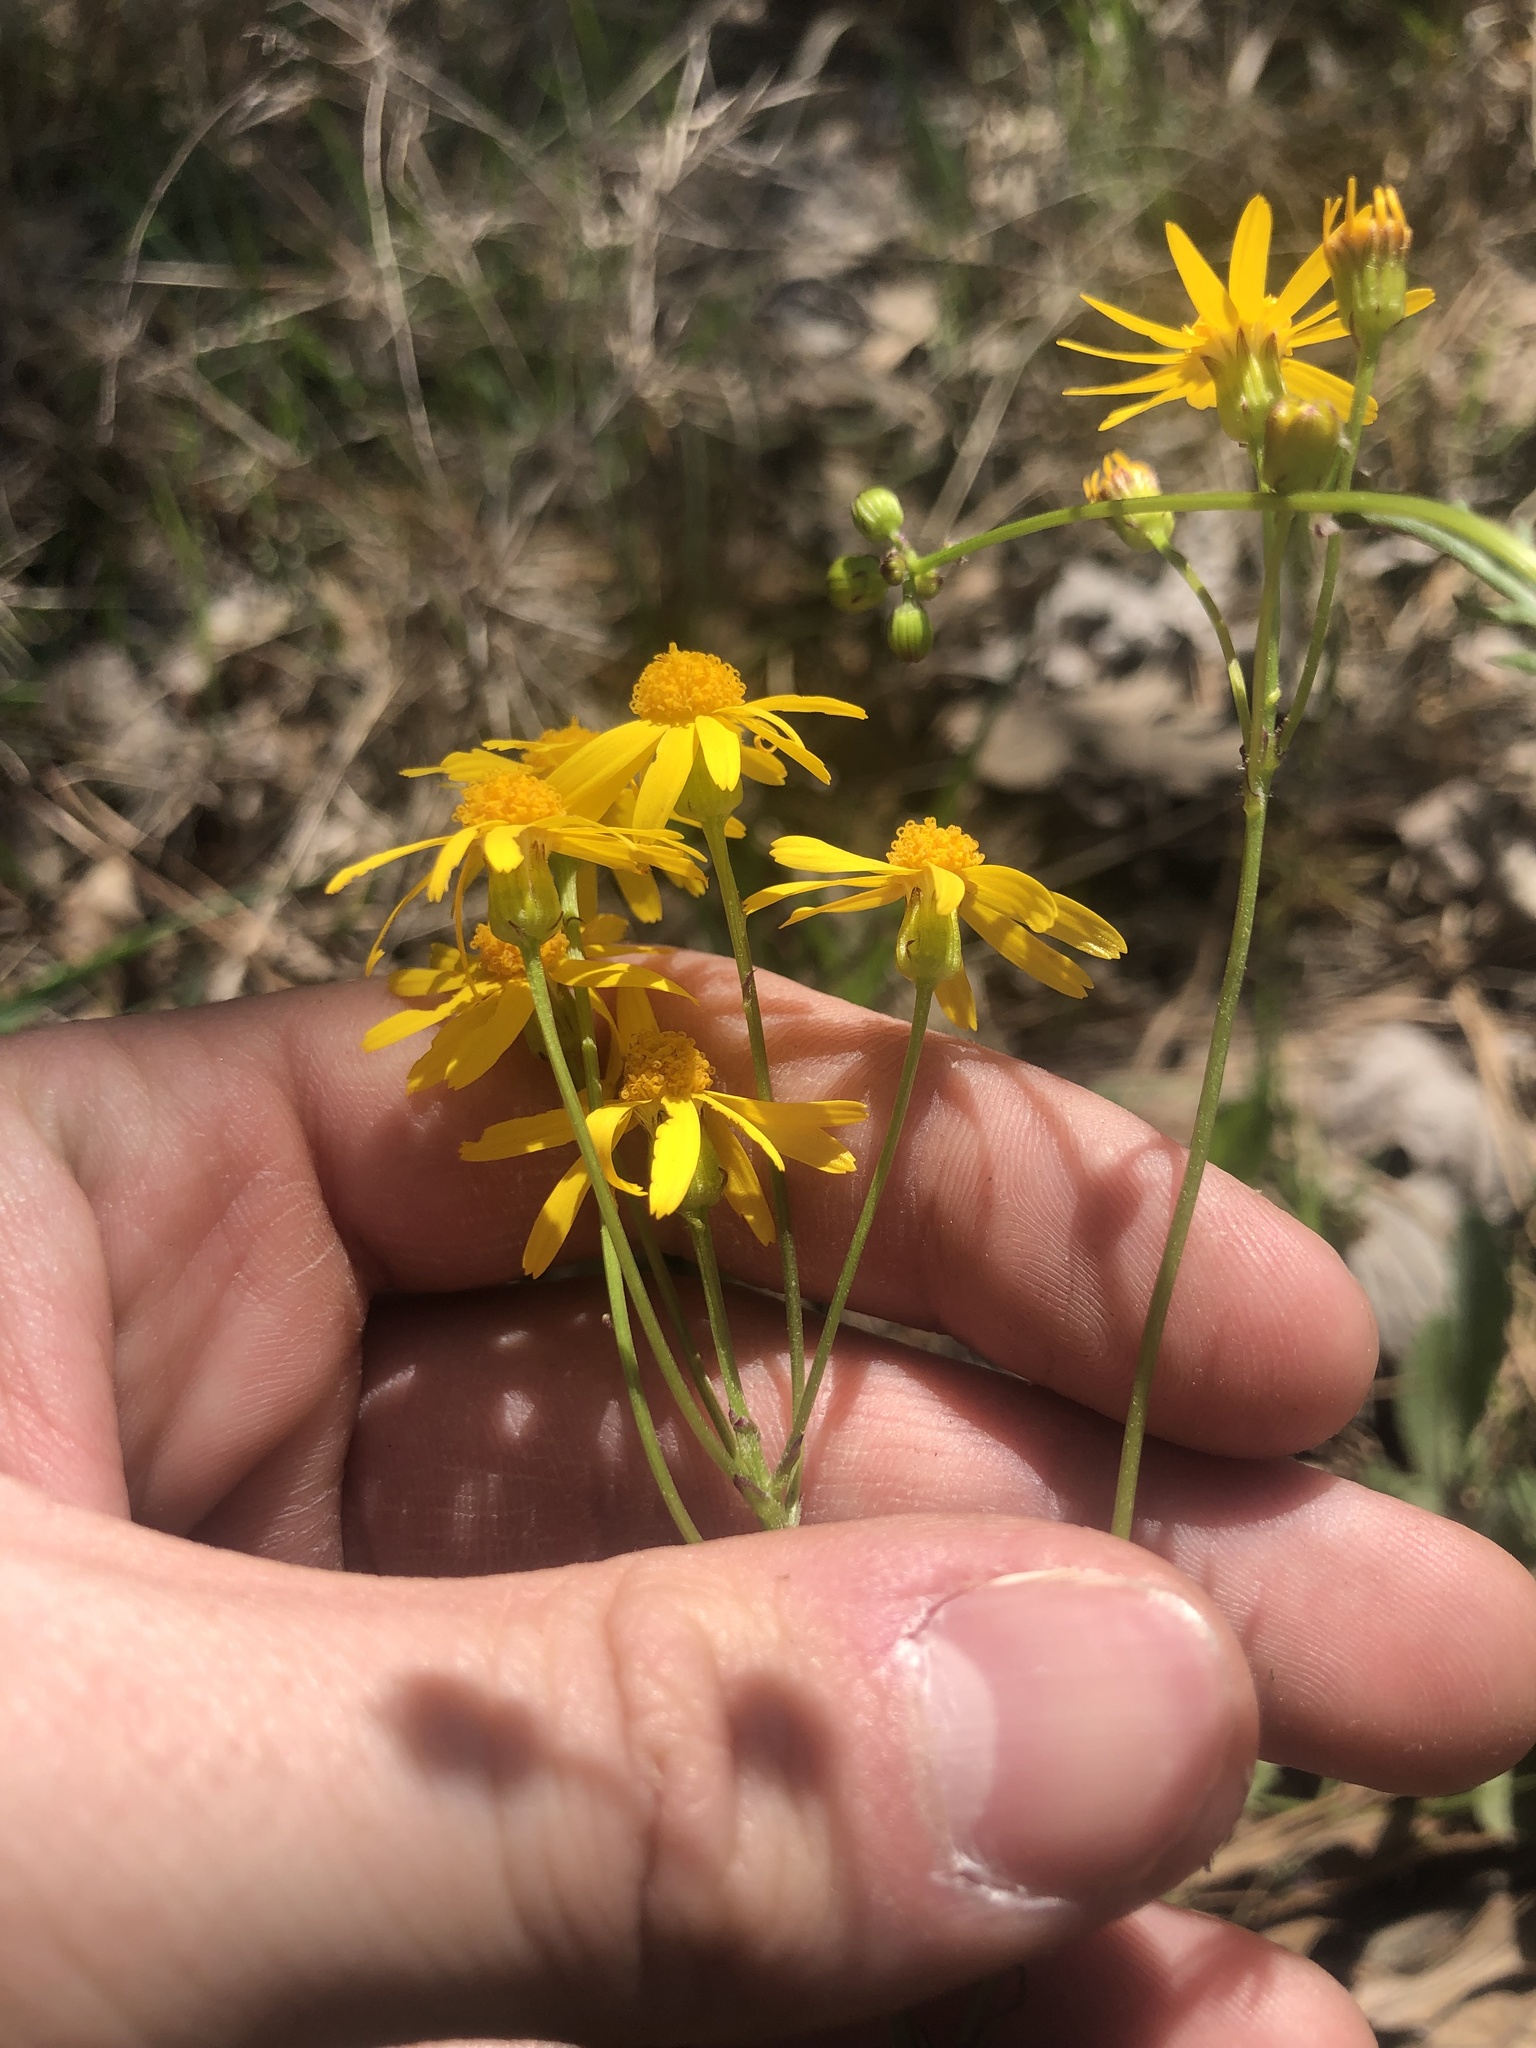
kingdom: Plantae
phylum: Tracheophyta
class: Magnoliopsida
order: Asterales
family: Asteraceae
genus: Packera
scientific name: Packera paupercula
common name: Balsam groundsel
